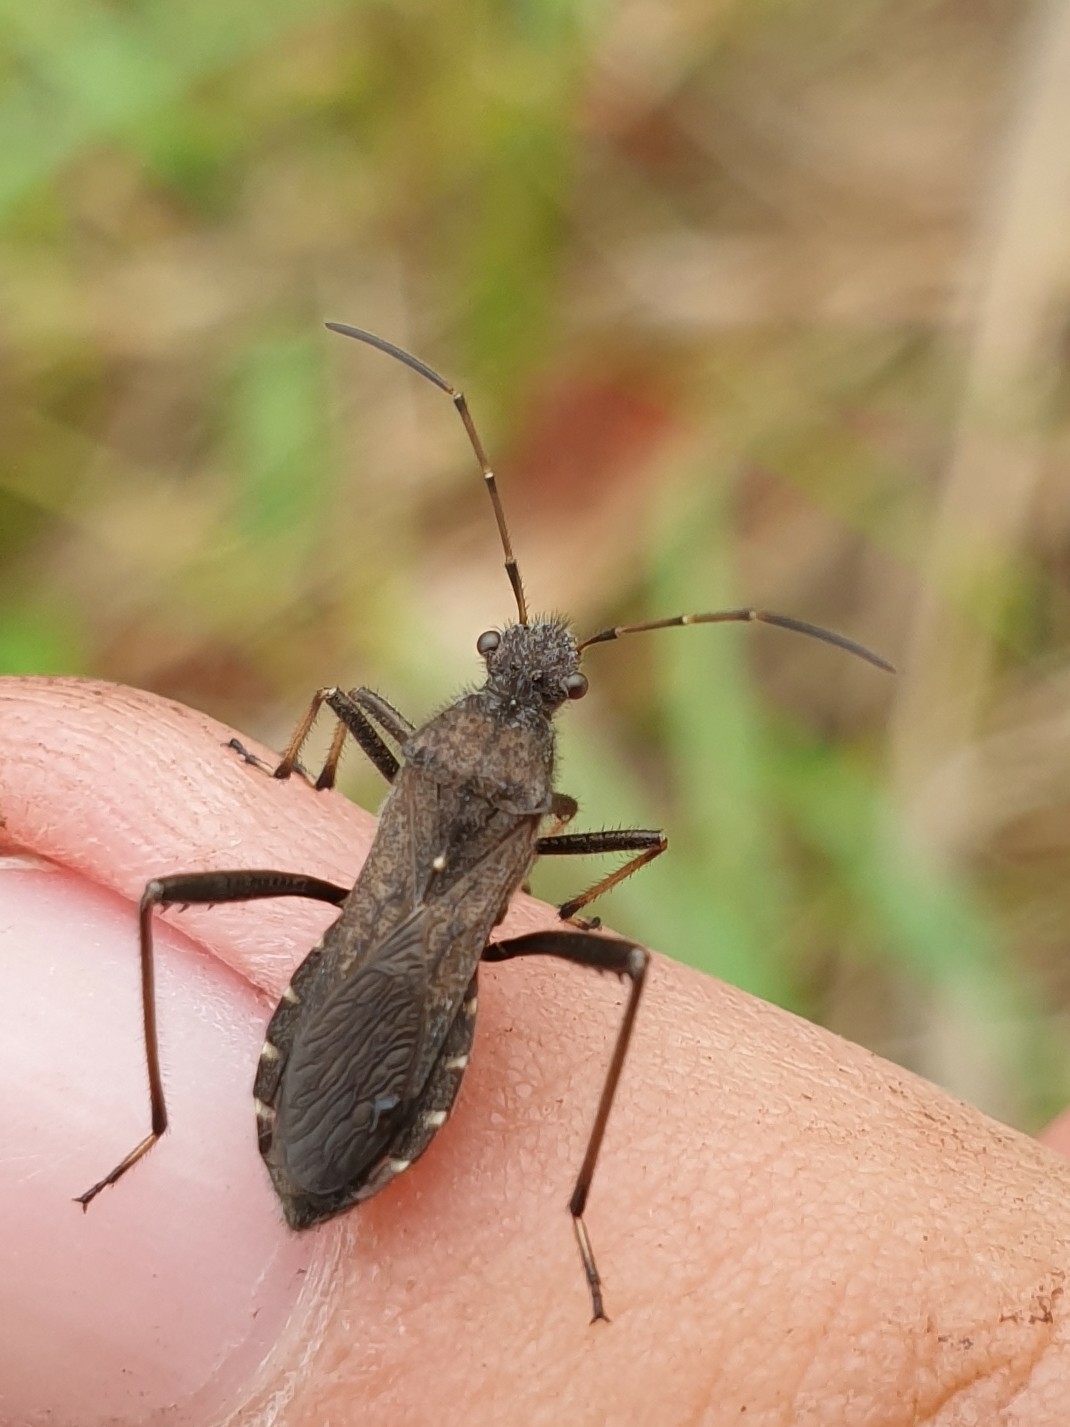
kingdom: Animalia
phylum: Arthropoda
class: Insecta
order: Hemiptera
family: Alydidae
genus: Alydus
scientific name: Alydus calcaratus
